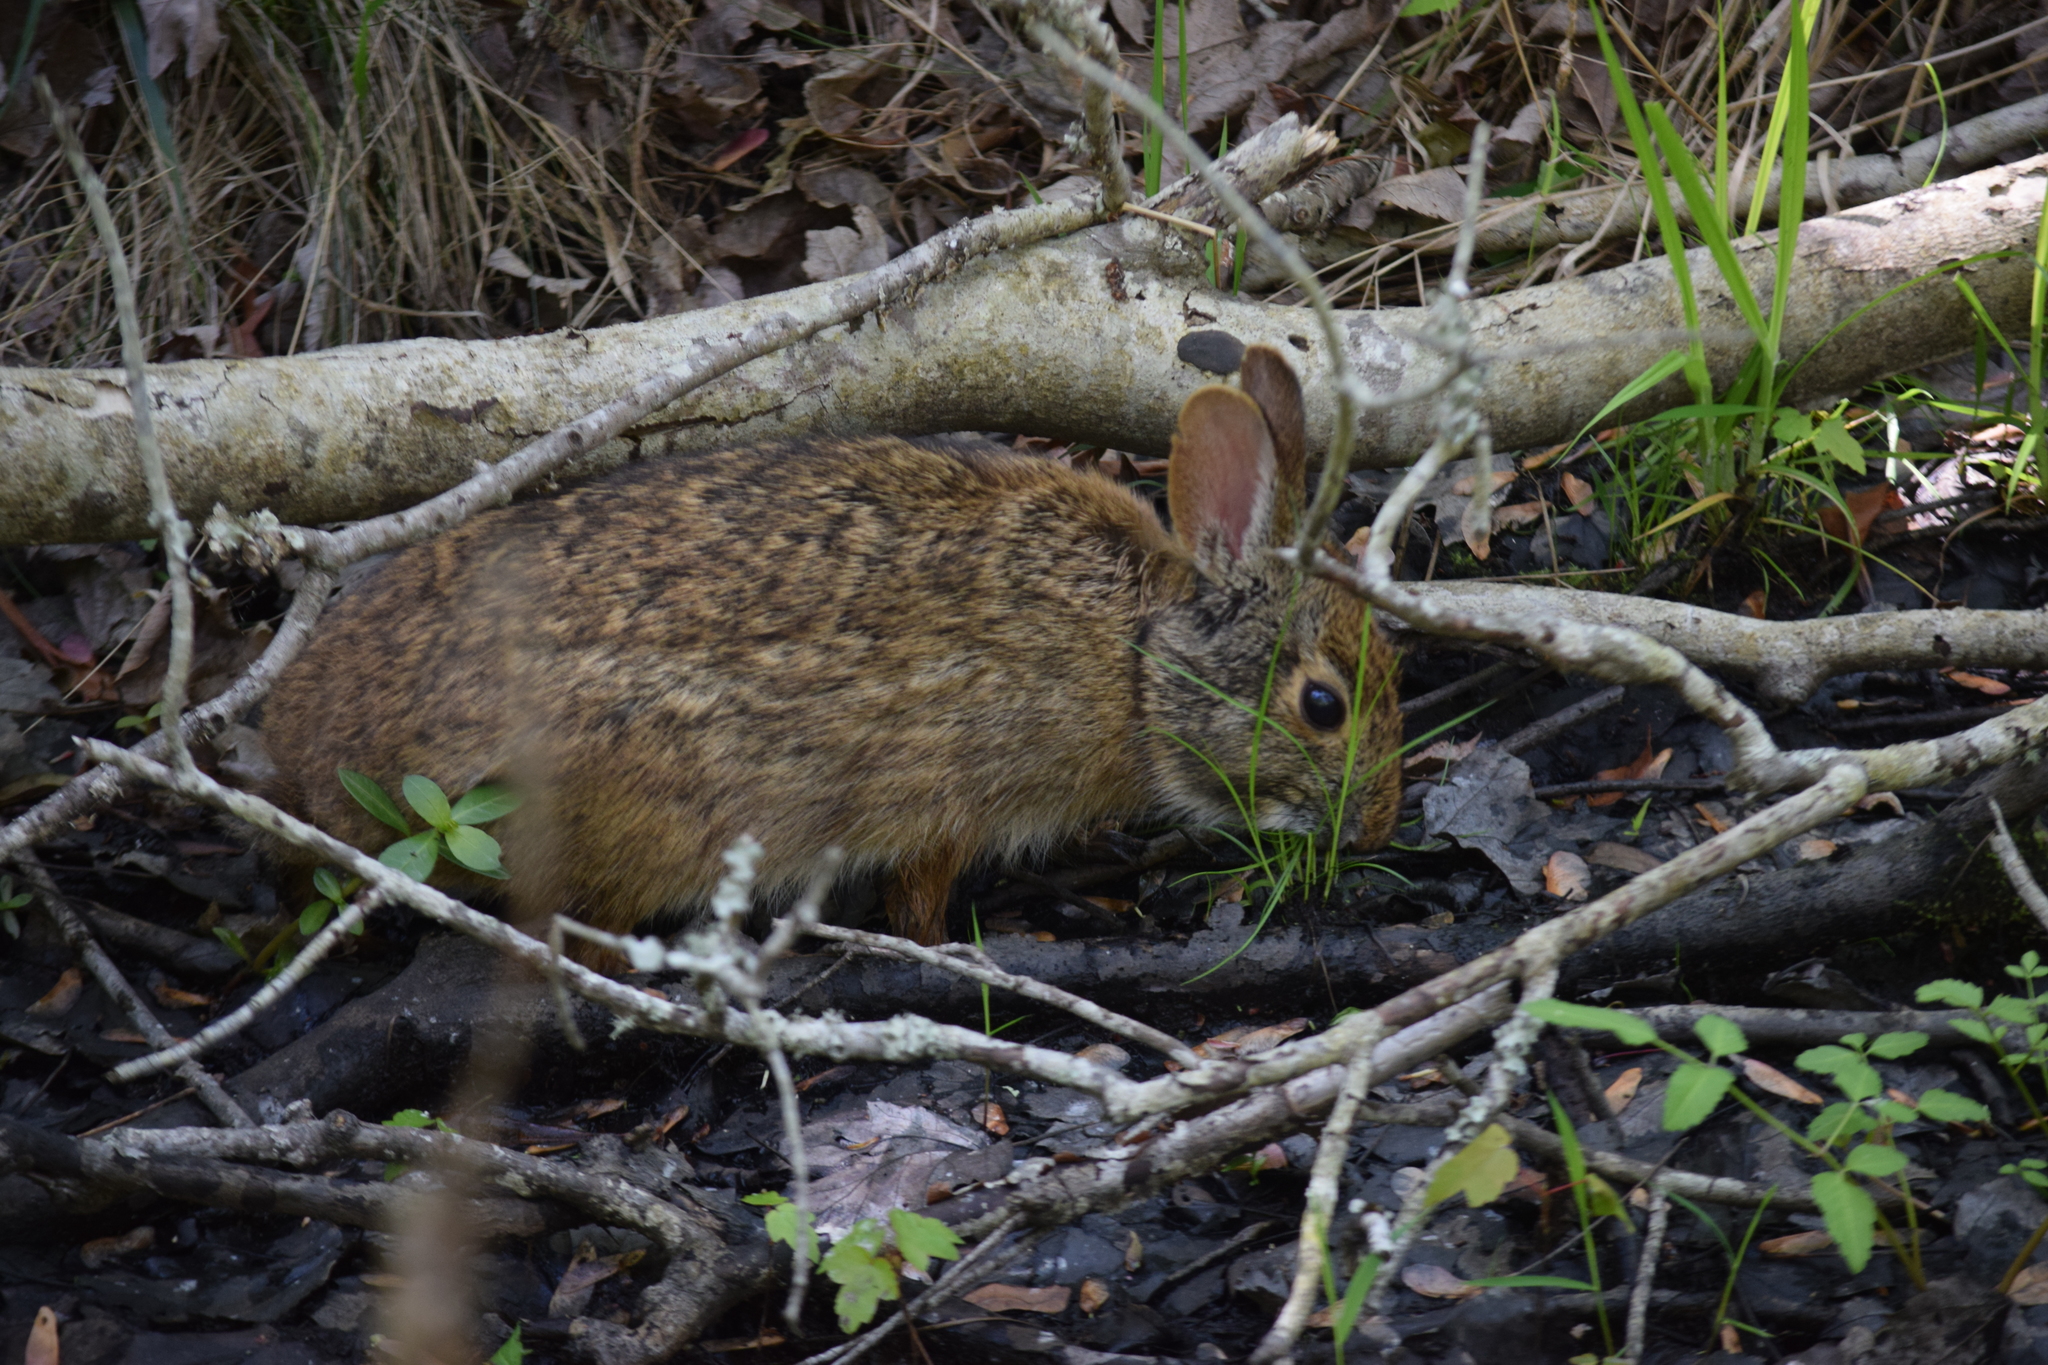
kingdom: Animalia
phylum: Chordata
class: Mammalia
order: Lagomorpha
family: Leporidae
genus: Sylvilagus
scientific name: Sylvilagus palustris
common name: Marsh rabbit
